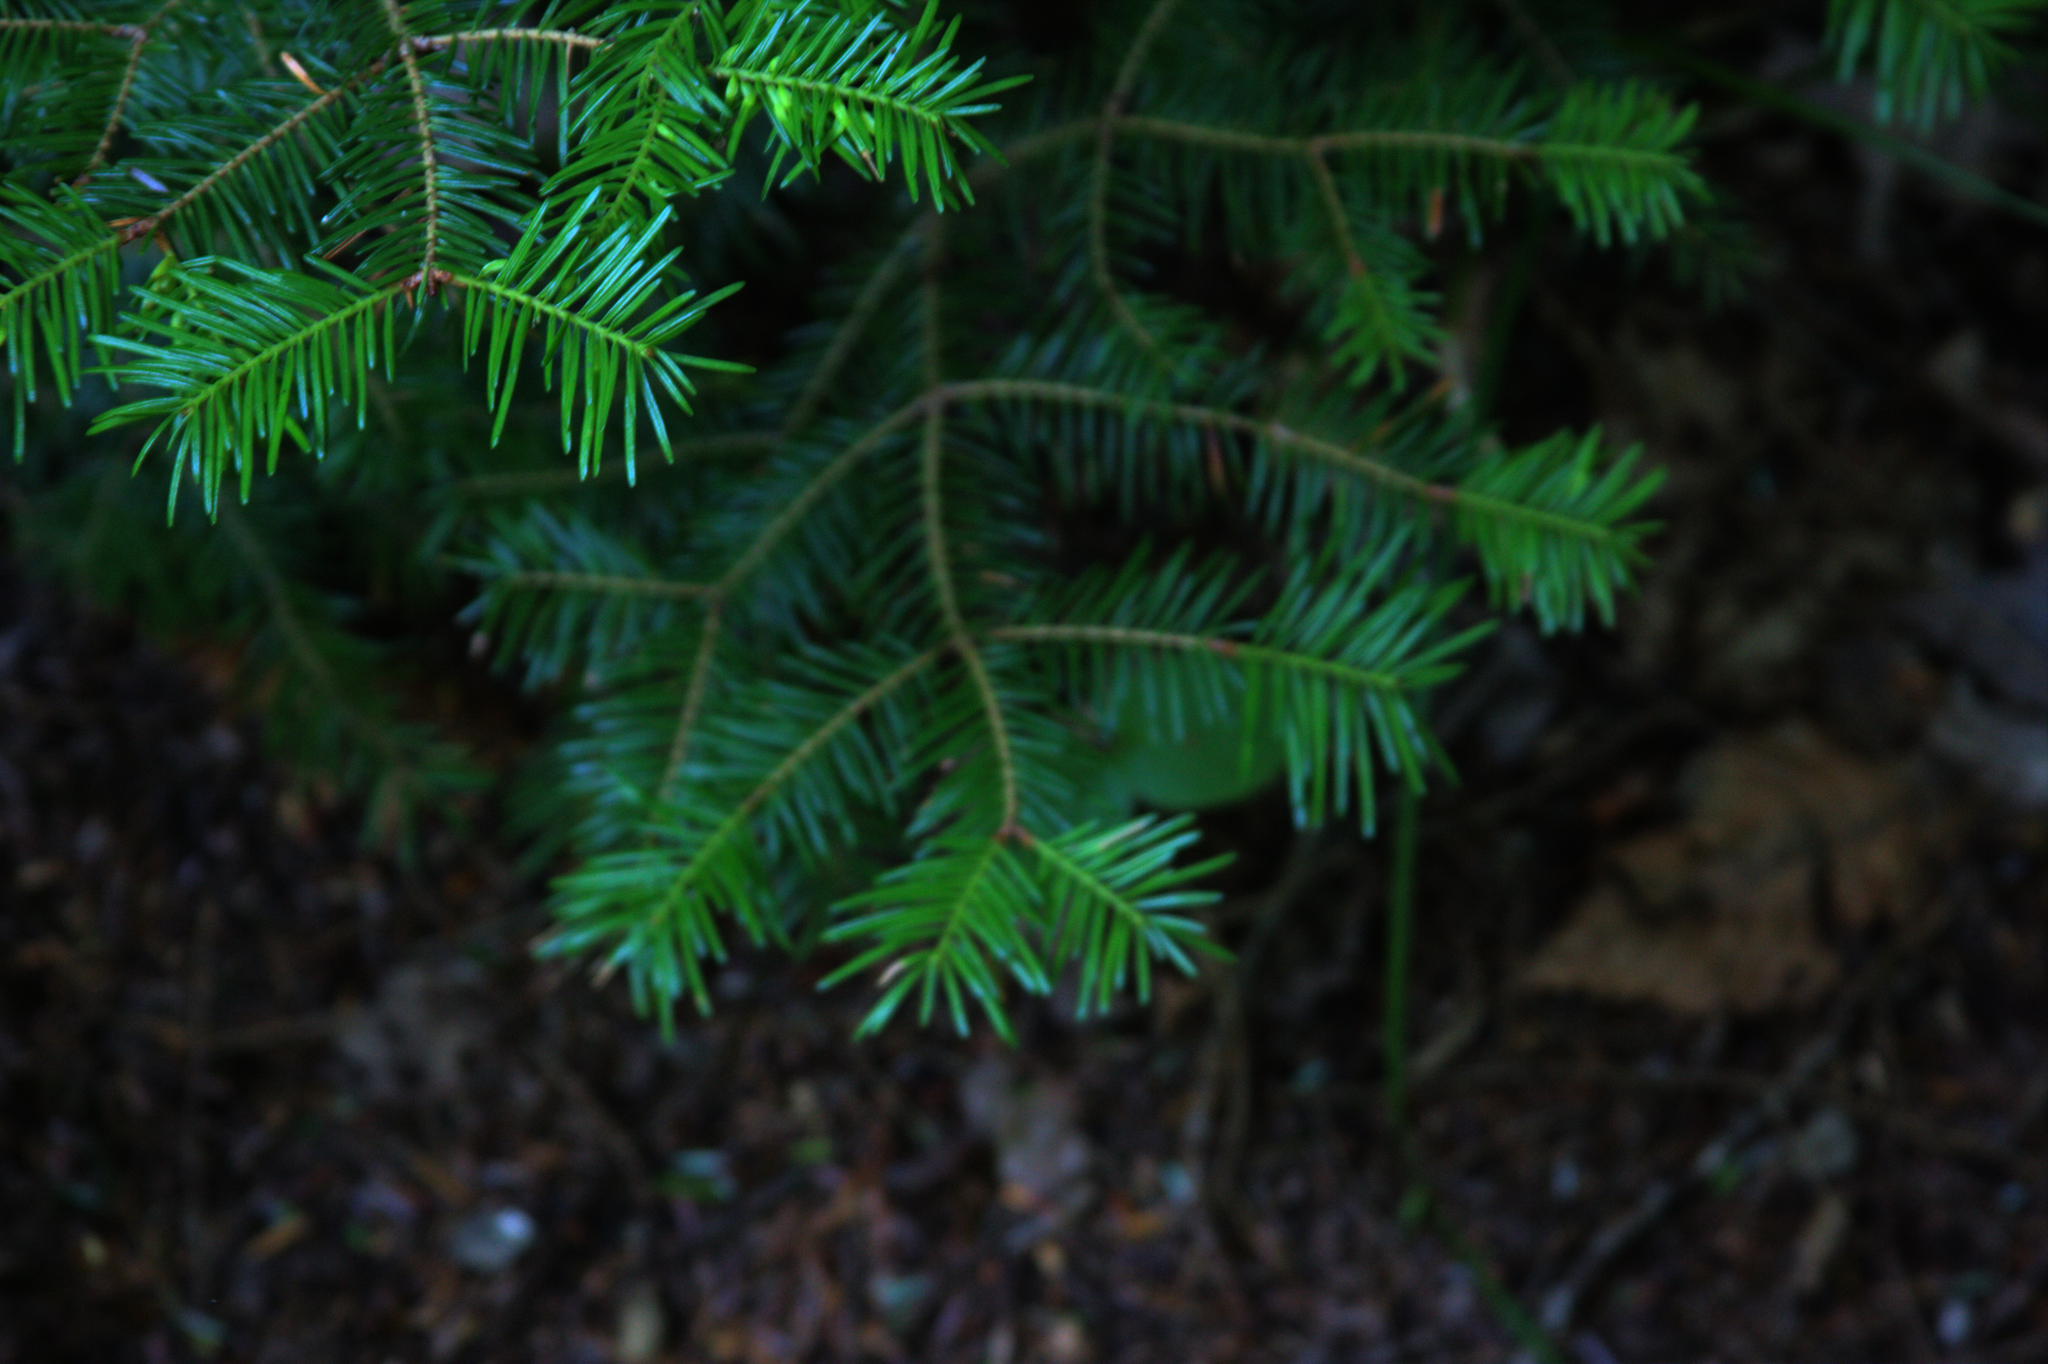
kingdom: Plantae
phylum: Tracheophyta
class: Pinopsida
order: Pinales
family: Pinaceae
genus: Abies
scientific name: Abies balsamea
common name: Balsam fir
